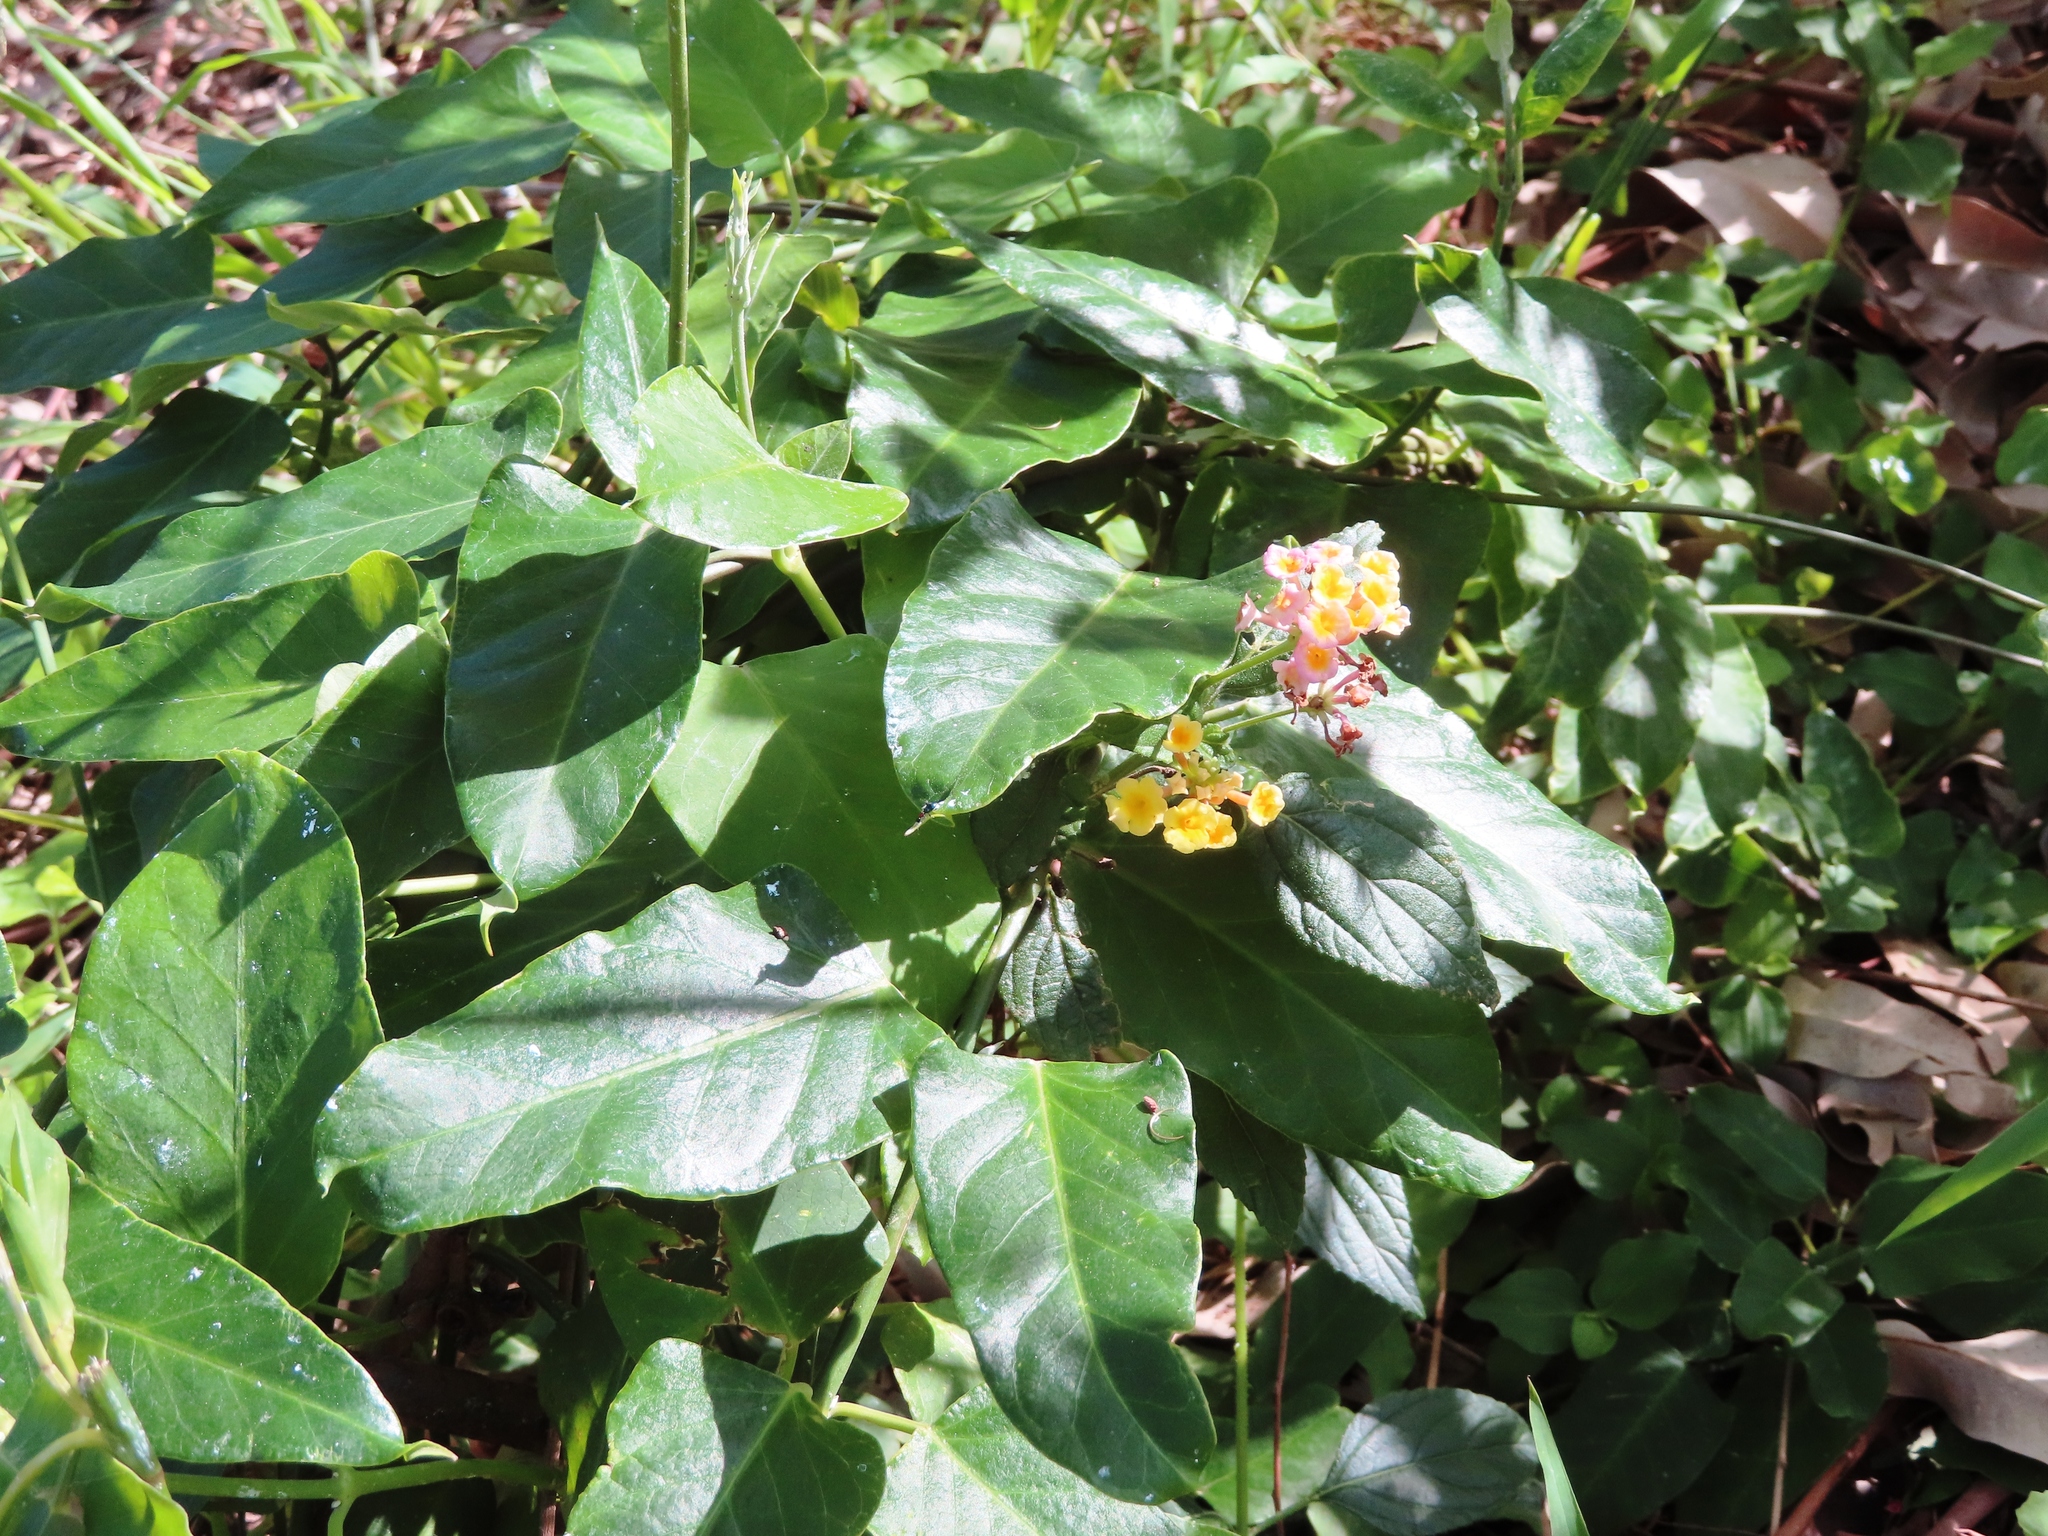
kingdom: Plantae
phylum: Tracheophyta
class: Magnoliopsida
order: Lamiales
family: Verbenaceae
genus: Lantana
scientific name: Lantana camara
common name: Lantana
